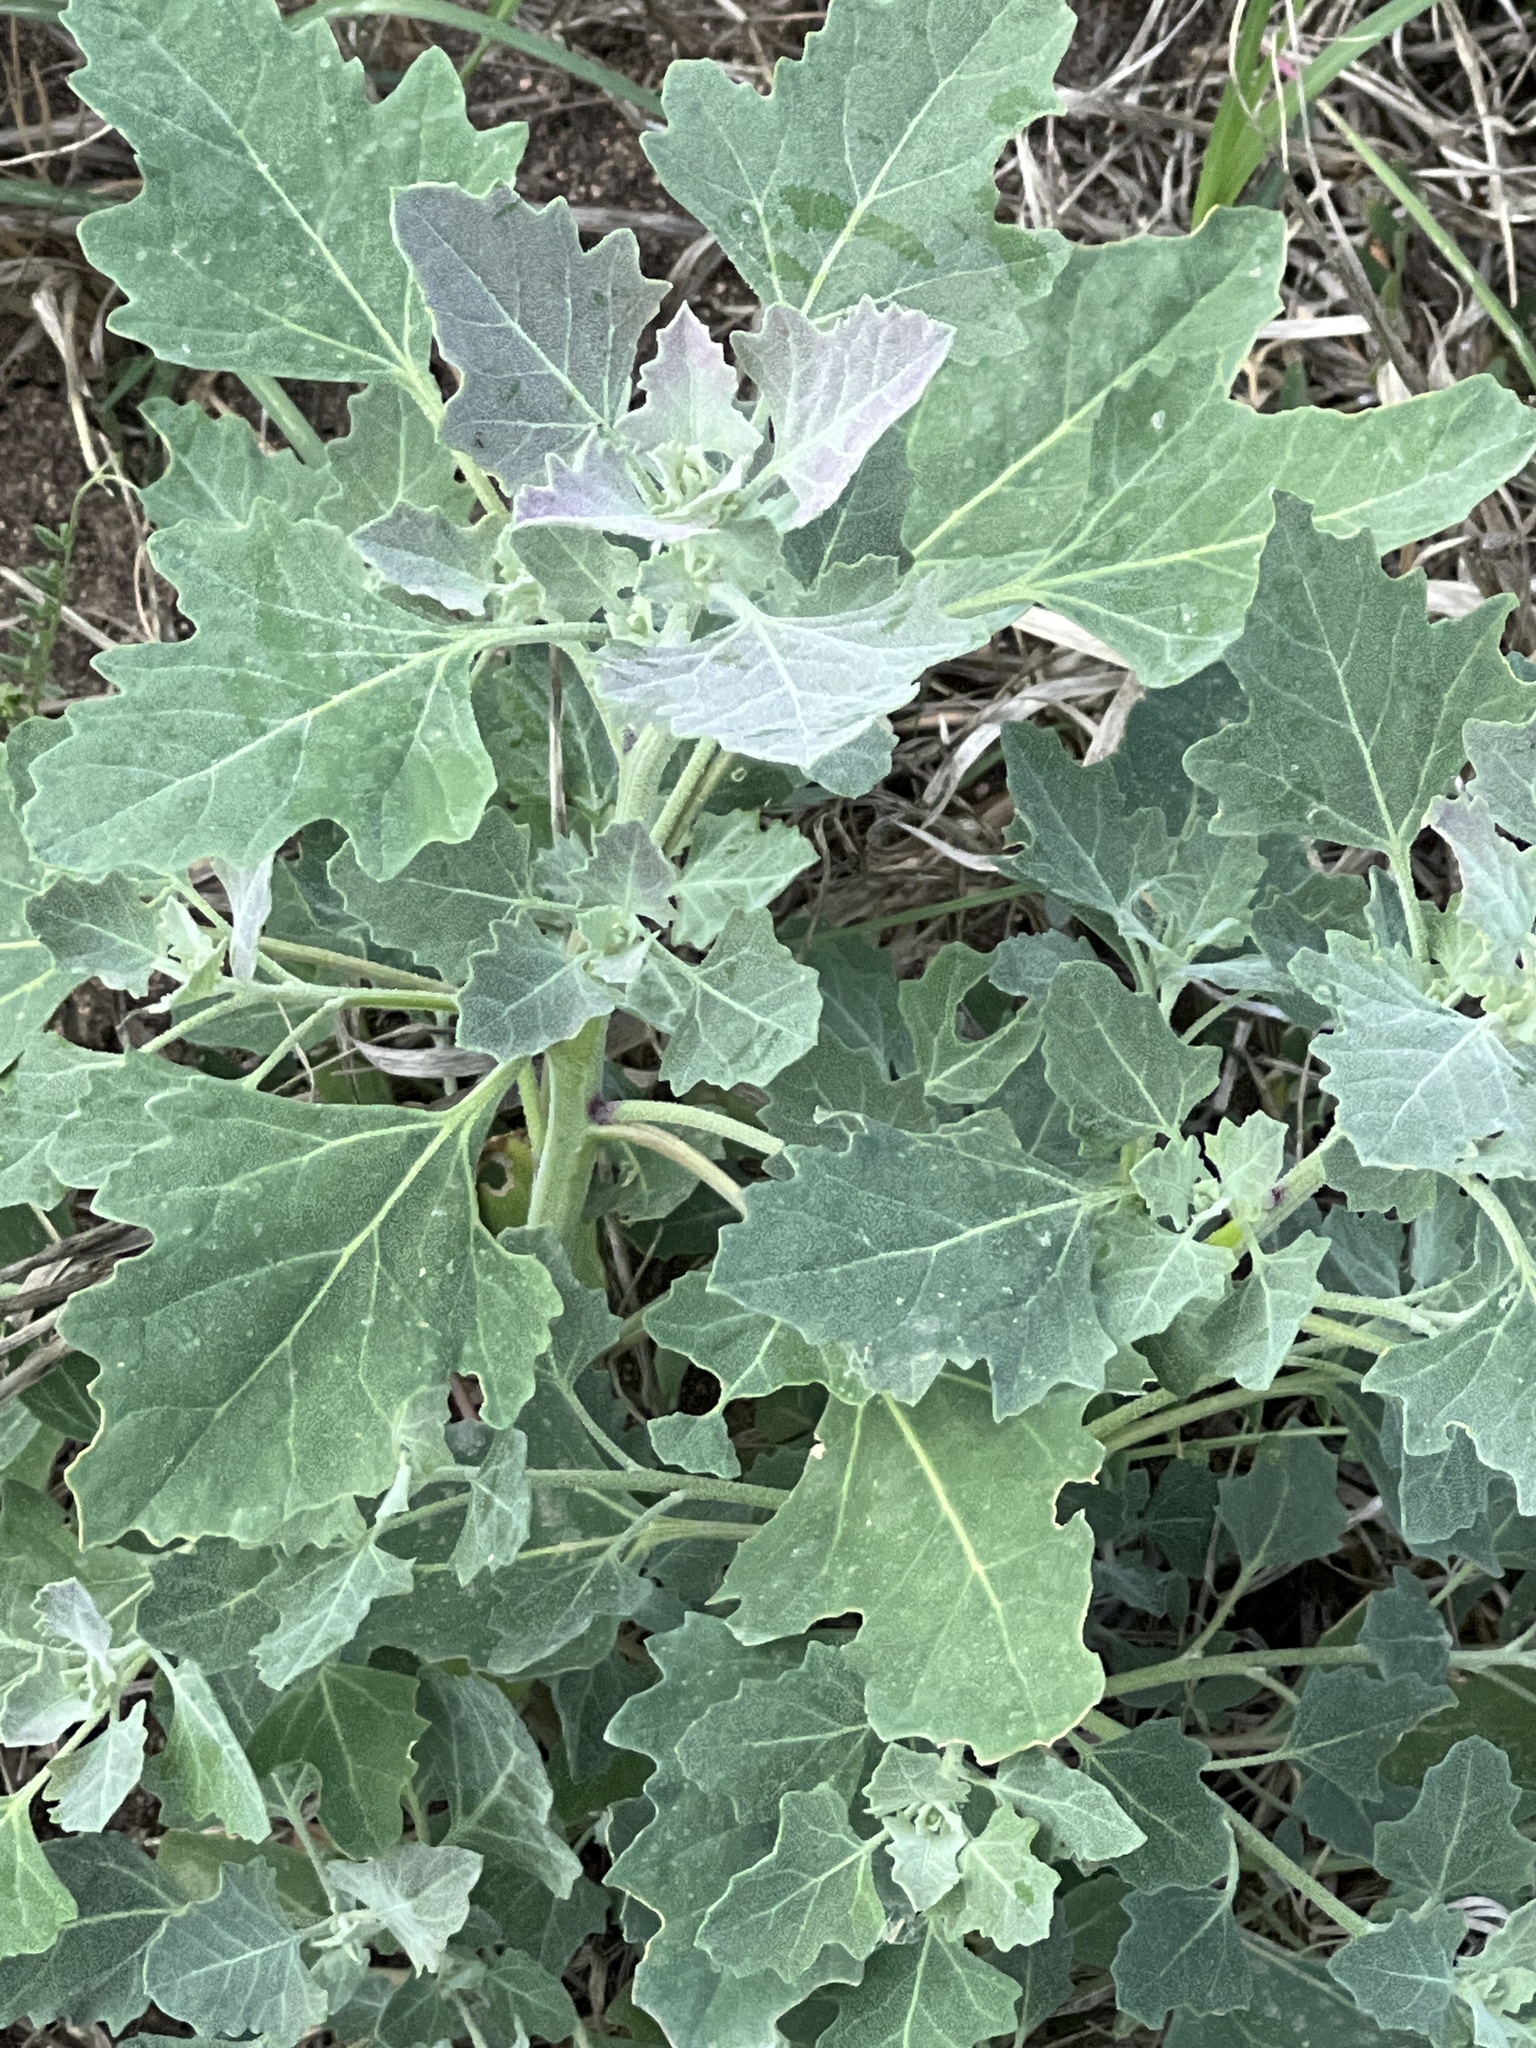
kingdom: Plantae
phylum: Tracheophyta
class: Magnoliopsida
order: Caryophyllales
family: Amaranthaceae
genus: Chenopodium
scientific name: Chenopodium album
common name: Fat-hen
